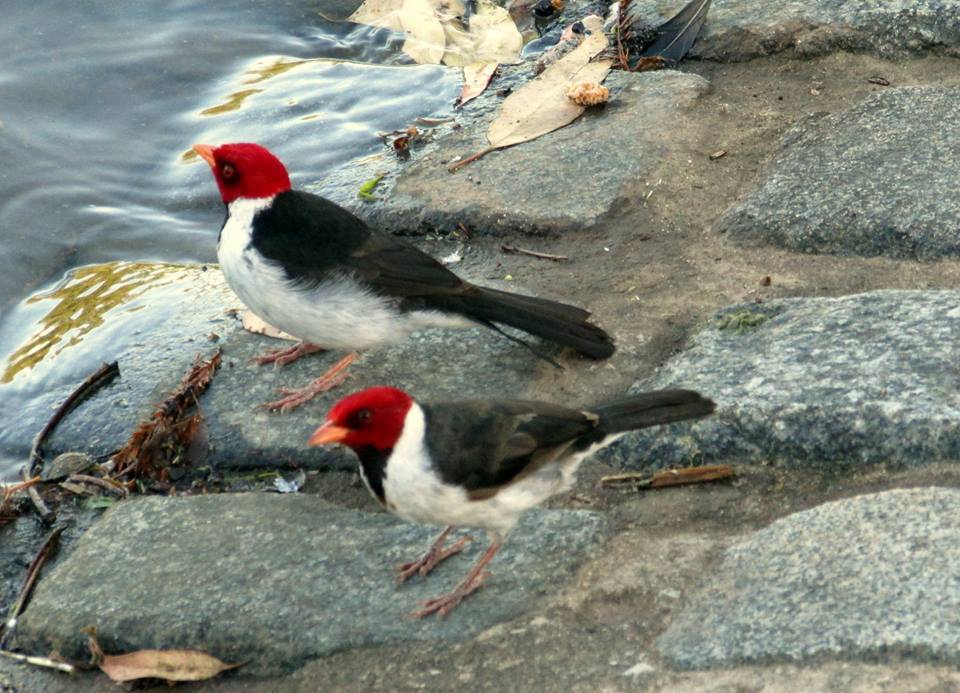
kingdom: Animalia
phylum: Chordata
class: Aves
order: Passeriformes
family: Thraupidae
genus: Paroaria
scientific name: Paroaria capitata
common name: Yellow-billed cardinal
